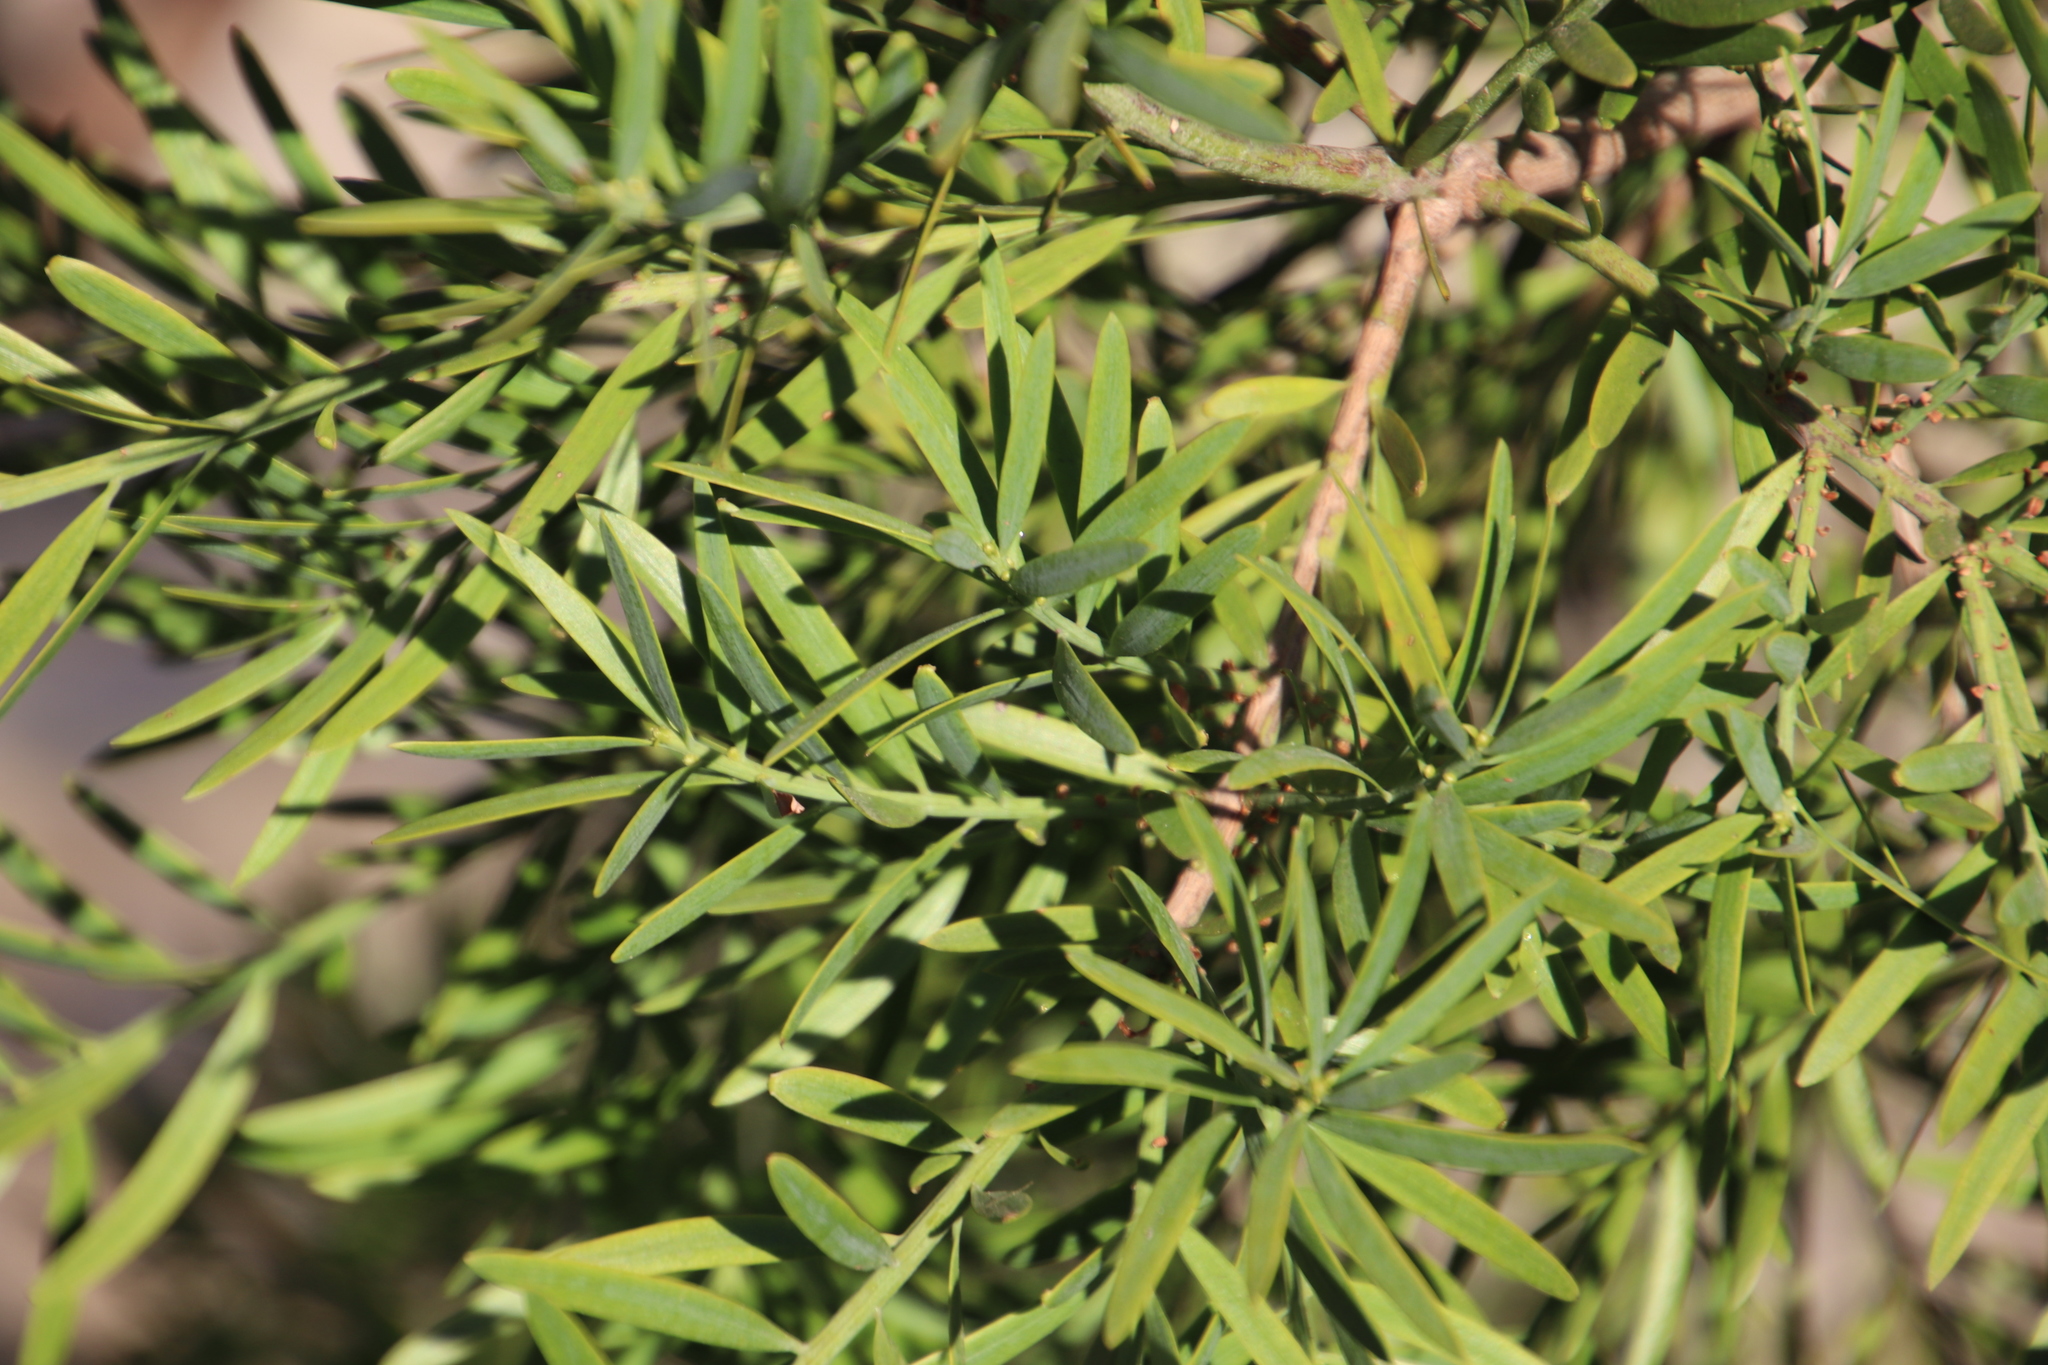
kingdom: Plantae
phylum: Tracheophyta
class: Pinopsida
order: Pinales
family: Podocarpaceae
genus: Podocarpus
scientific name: Podocarpus latifolius
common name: True yellowwood
